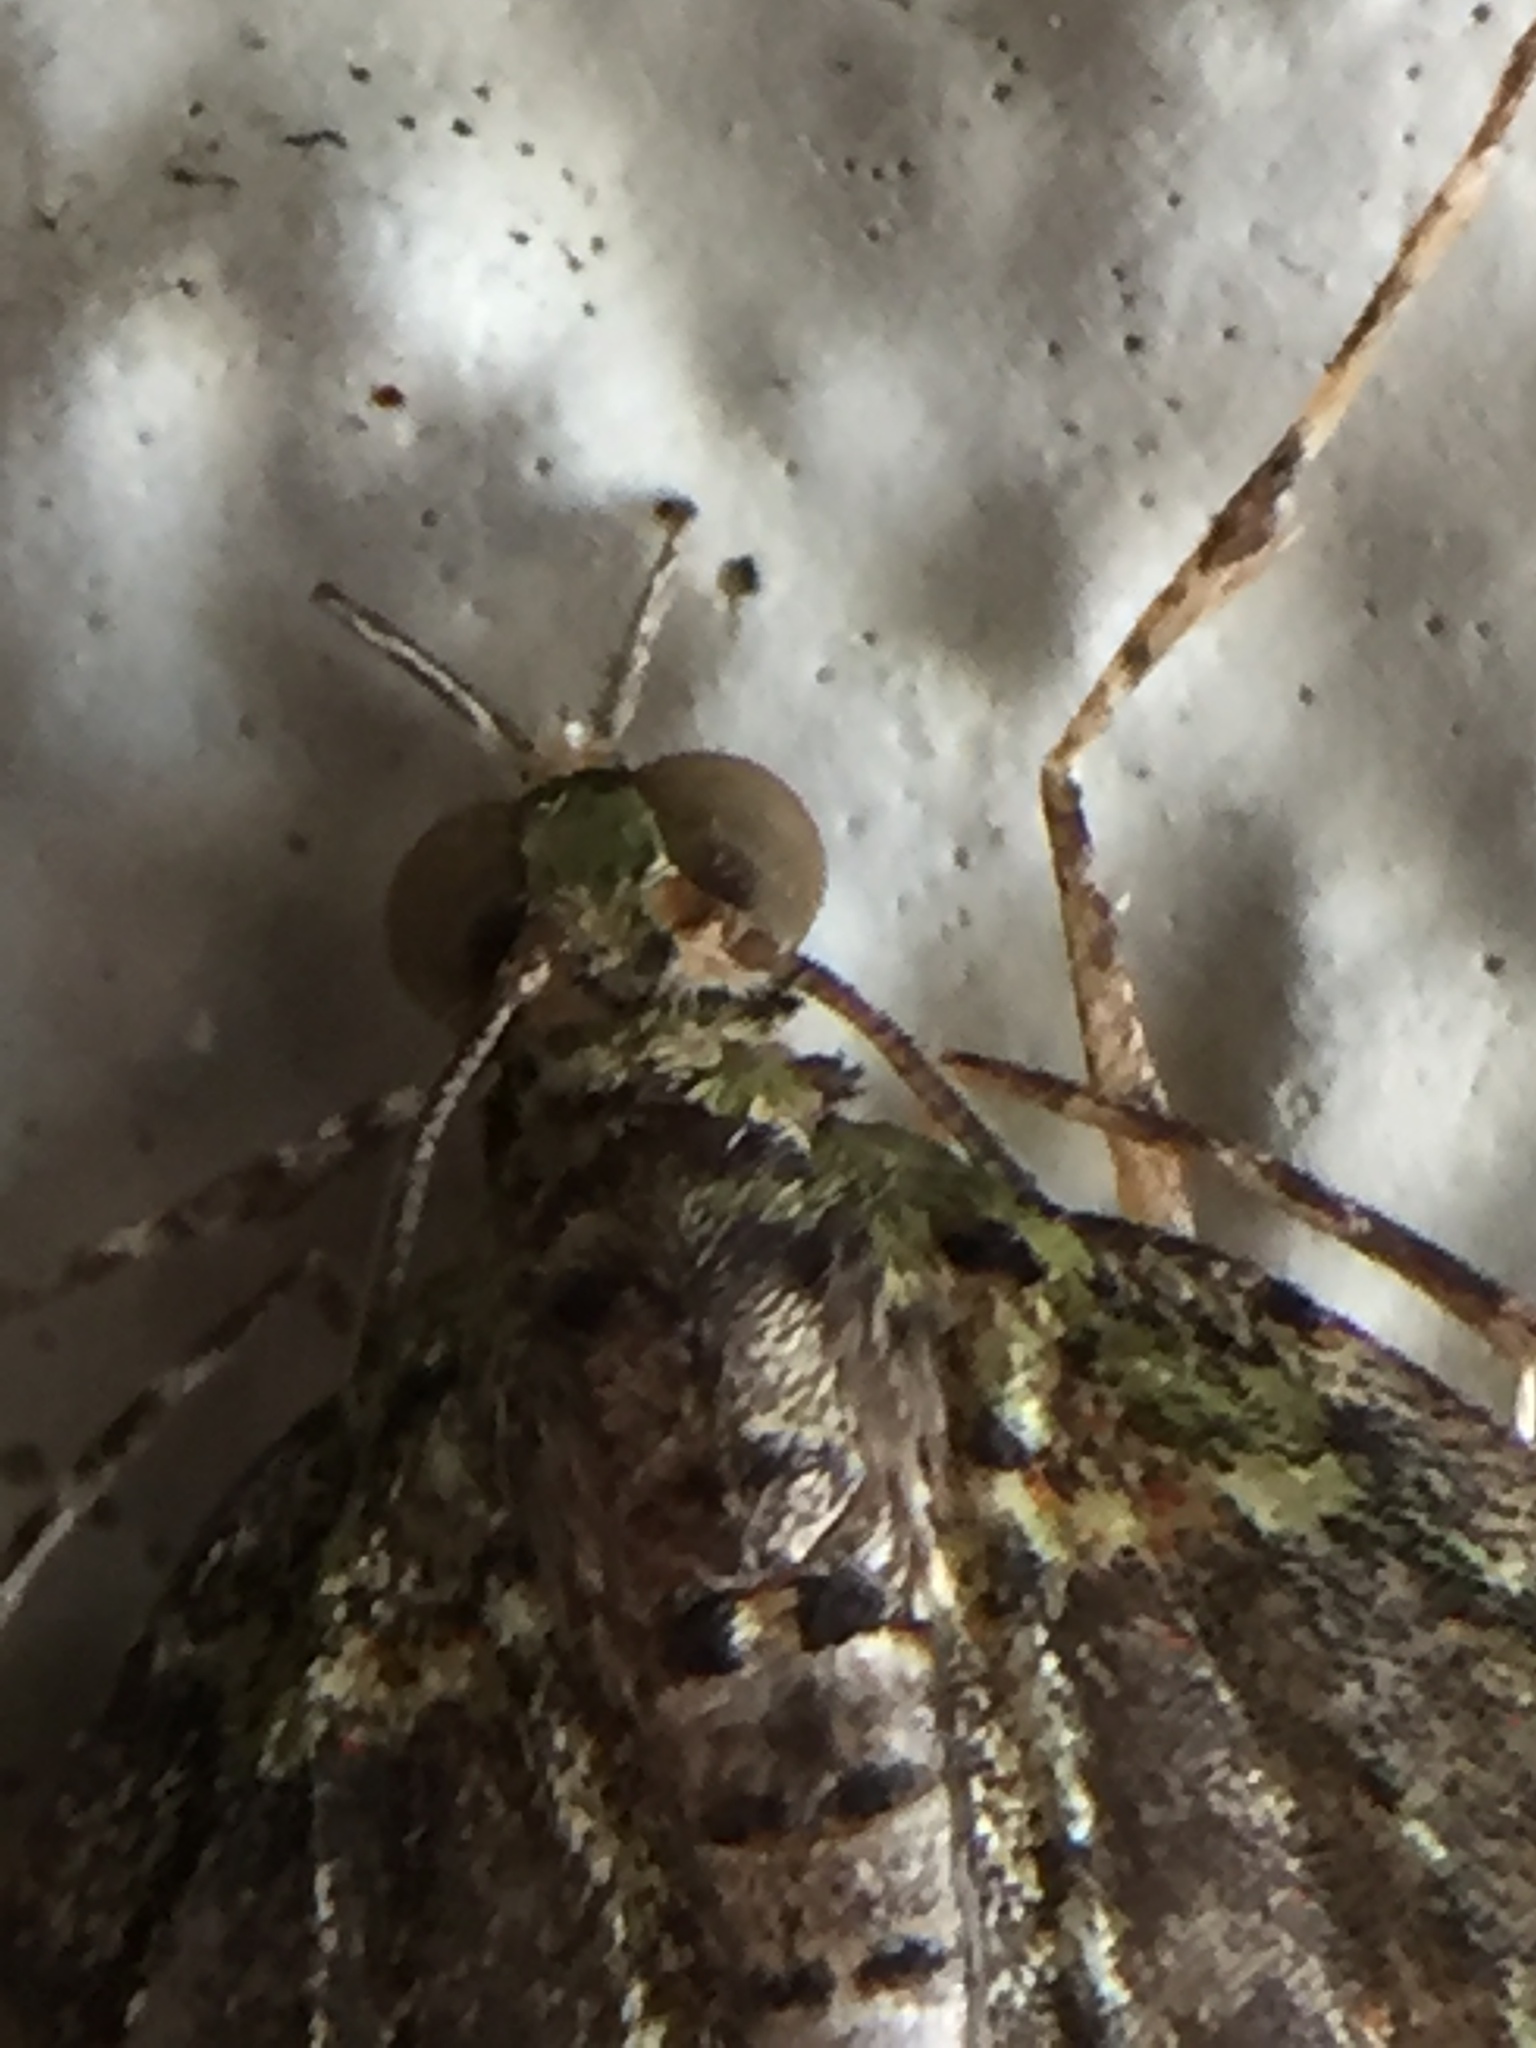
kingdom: Animalia
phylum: Arthropoda
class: Insecta
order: Lepidoptera
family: Geometridae
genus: Tatosoma
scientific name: Tatosoma transitaria
